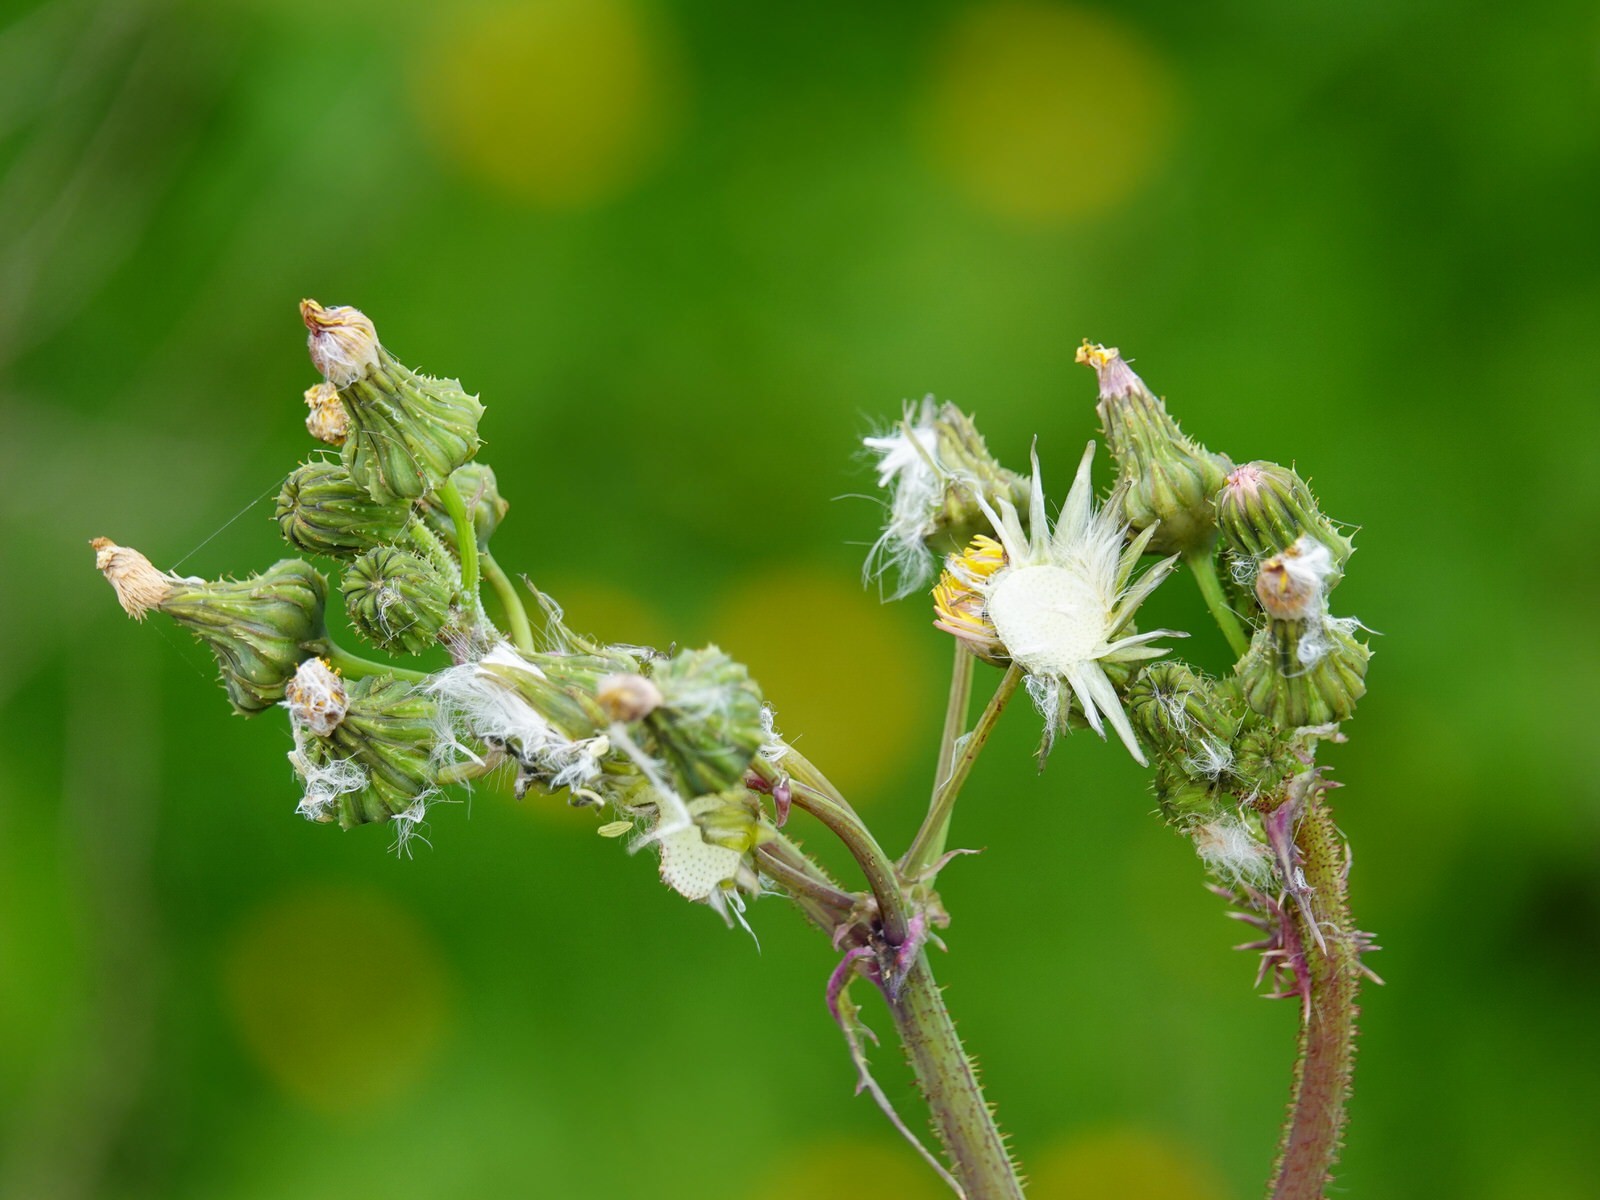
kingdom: Plantae
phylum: Tracheophyta
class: Magnoliopsida
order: Asterales
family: Asteraceae
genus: Sonchus
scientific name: Sonchus asper
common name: Prickly sow-thistle
